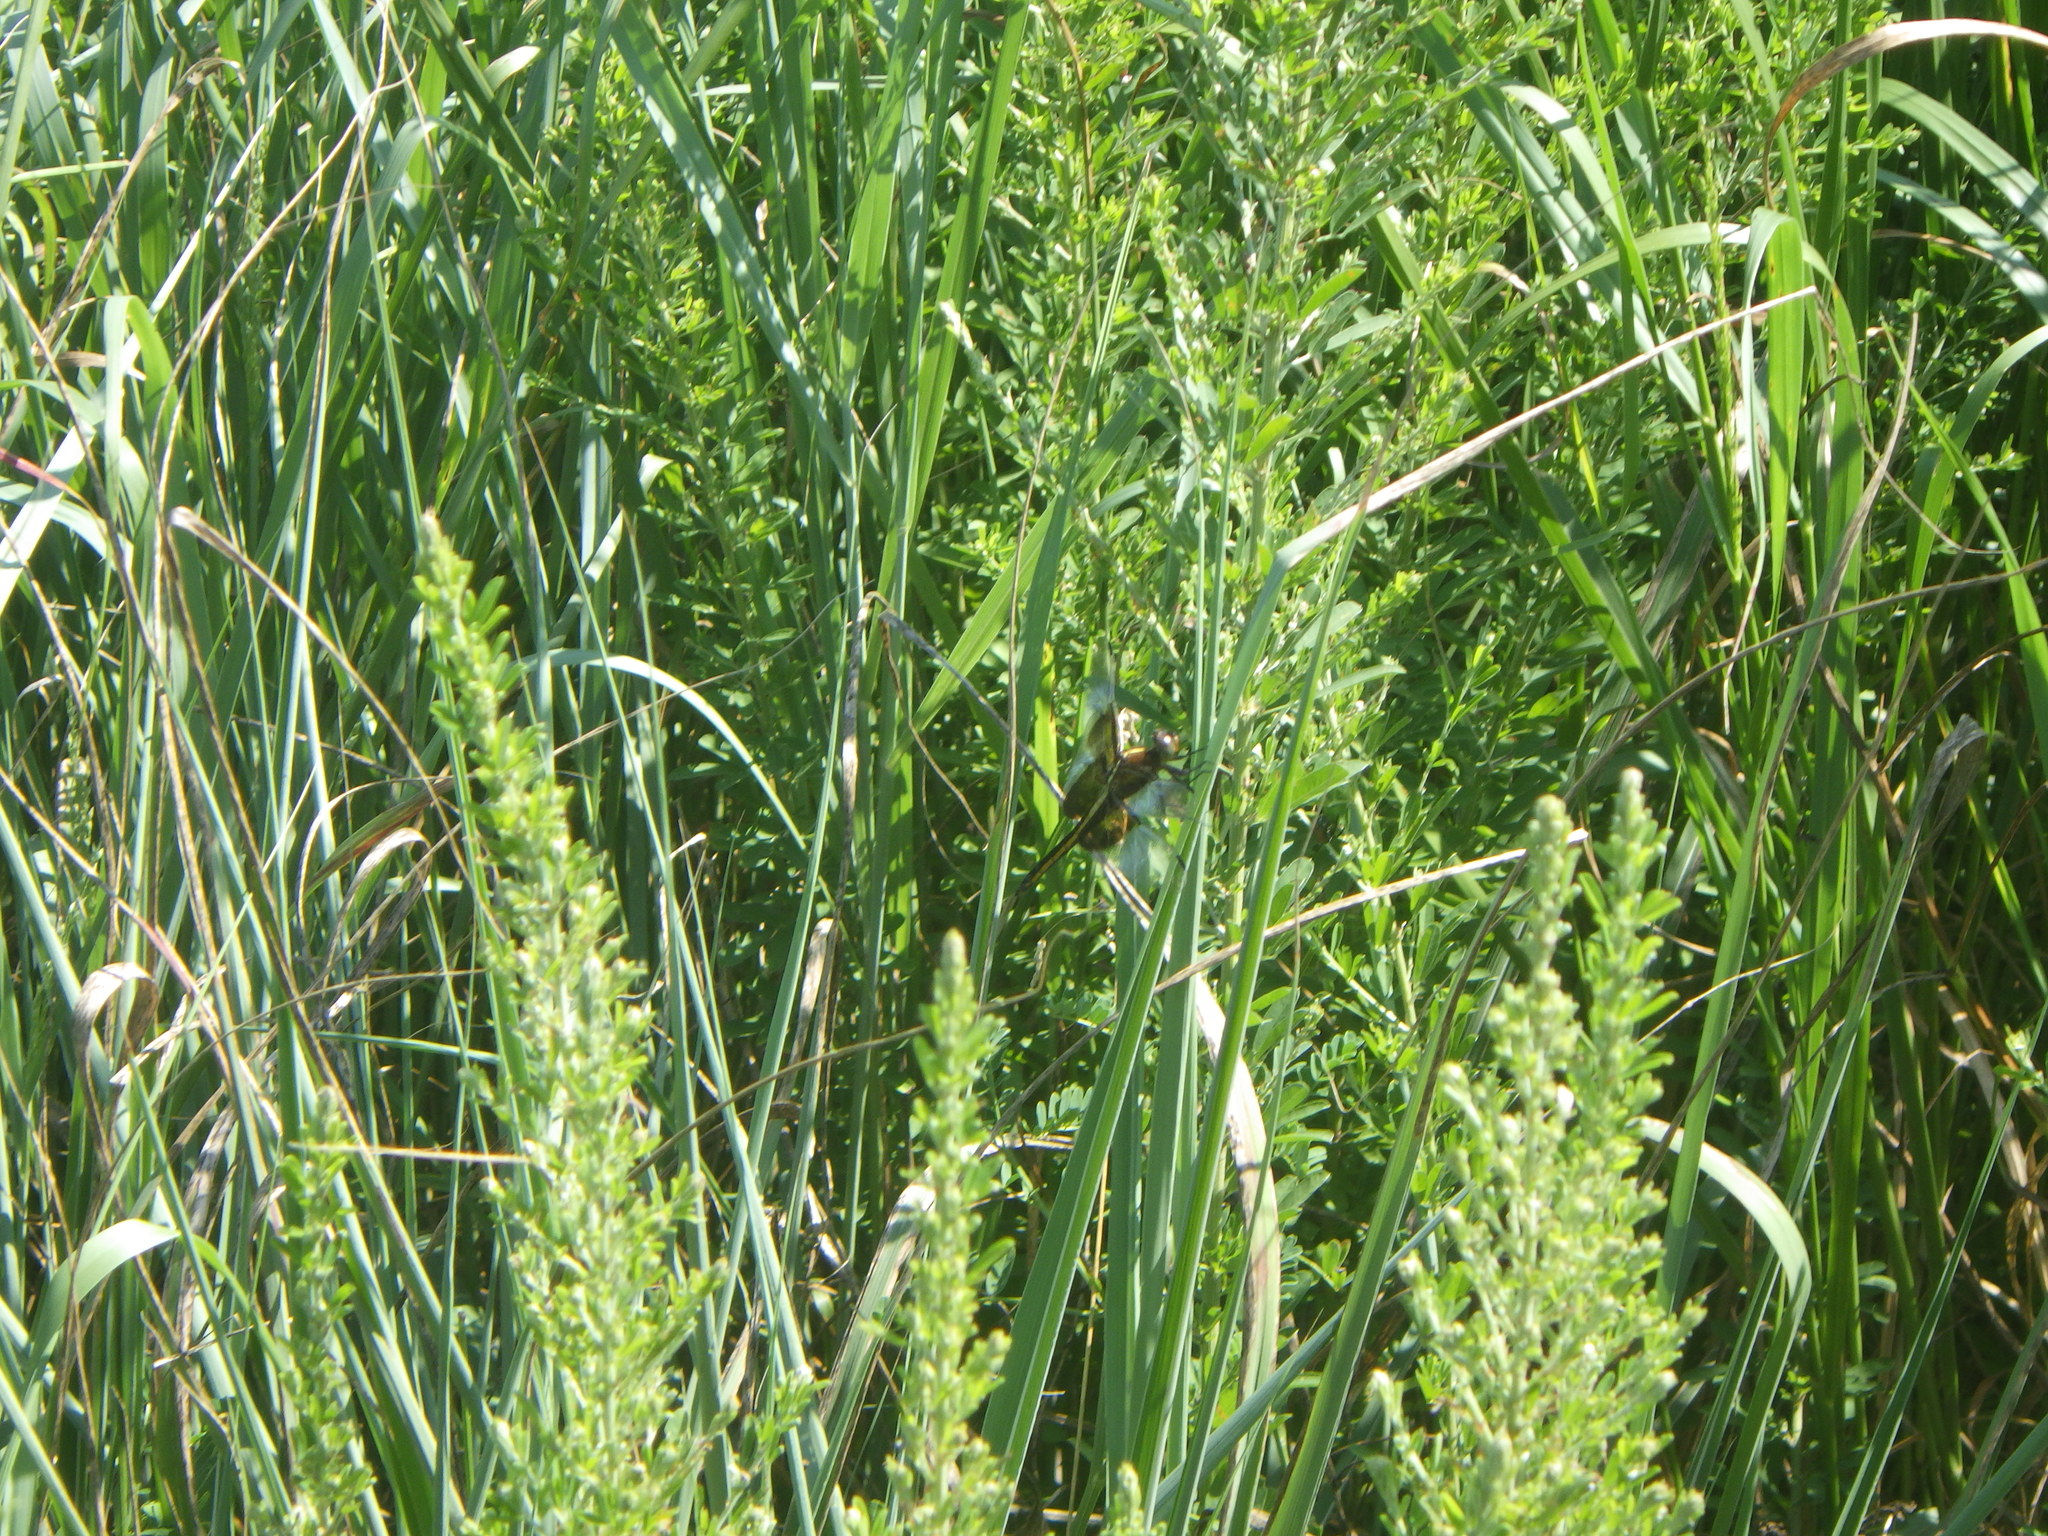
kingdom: Animalia
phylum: Arthropoda
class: Insecta
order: Odonata
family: Libellulidae
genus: Libellula
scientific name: Libellula luctuosa
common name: Widow skimmer
